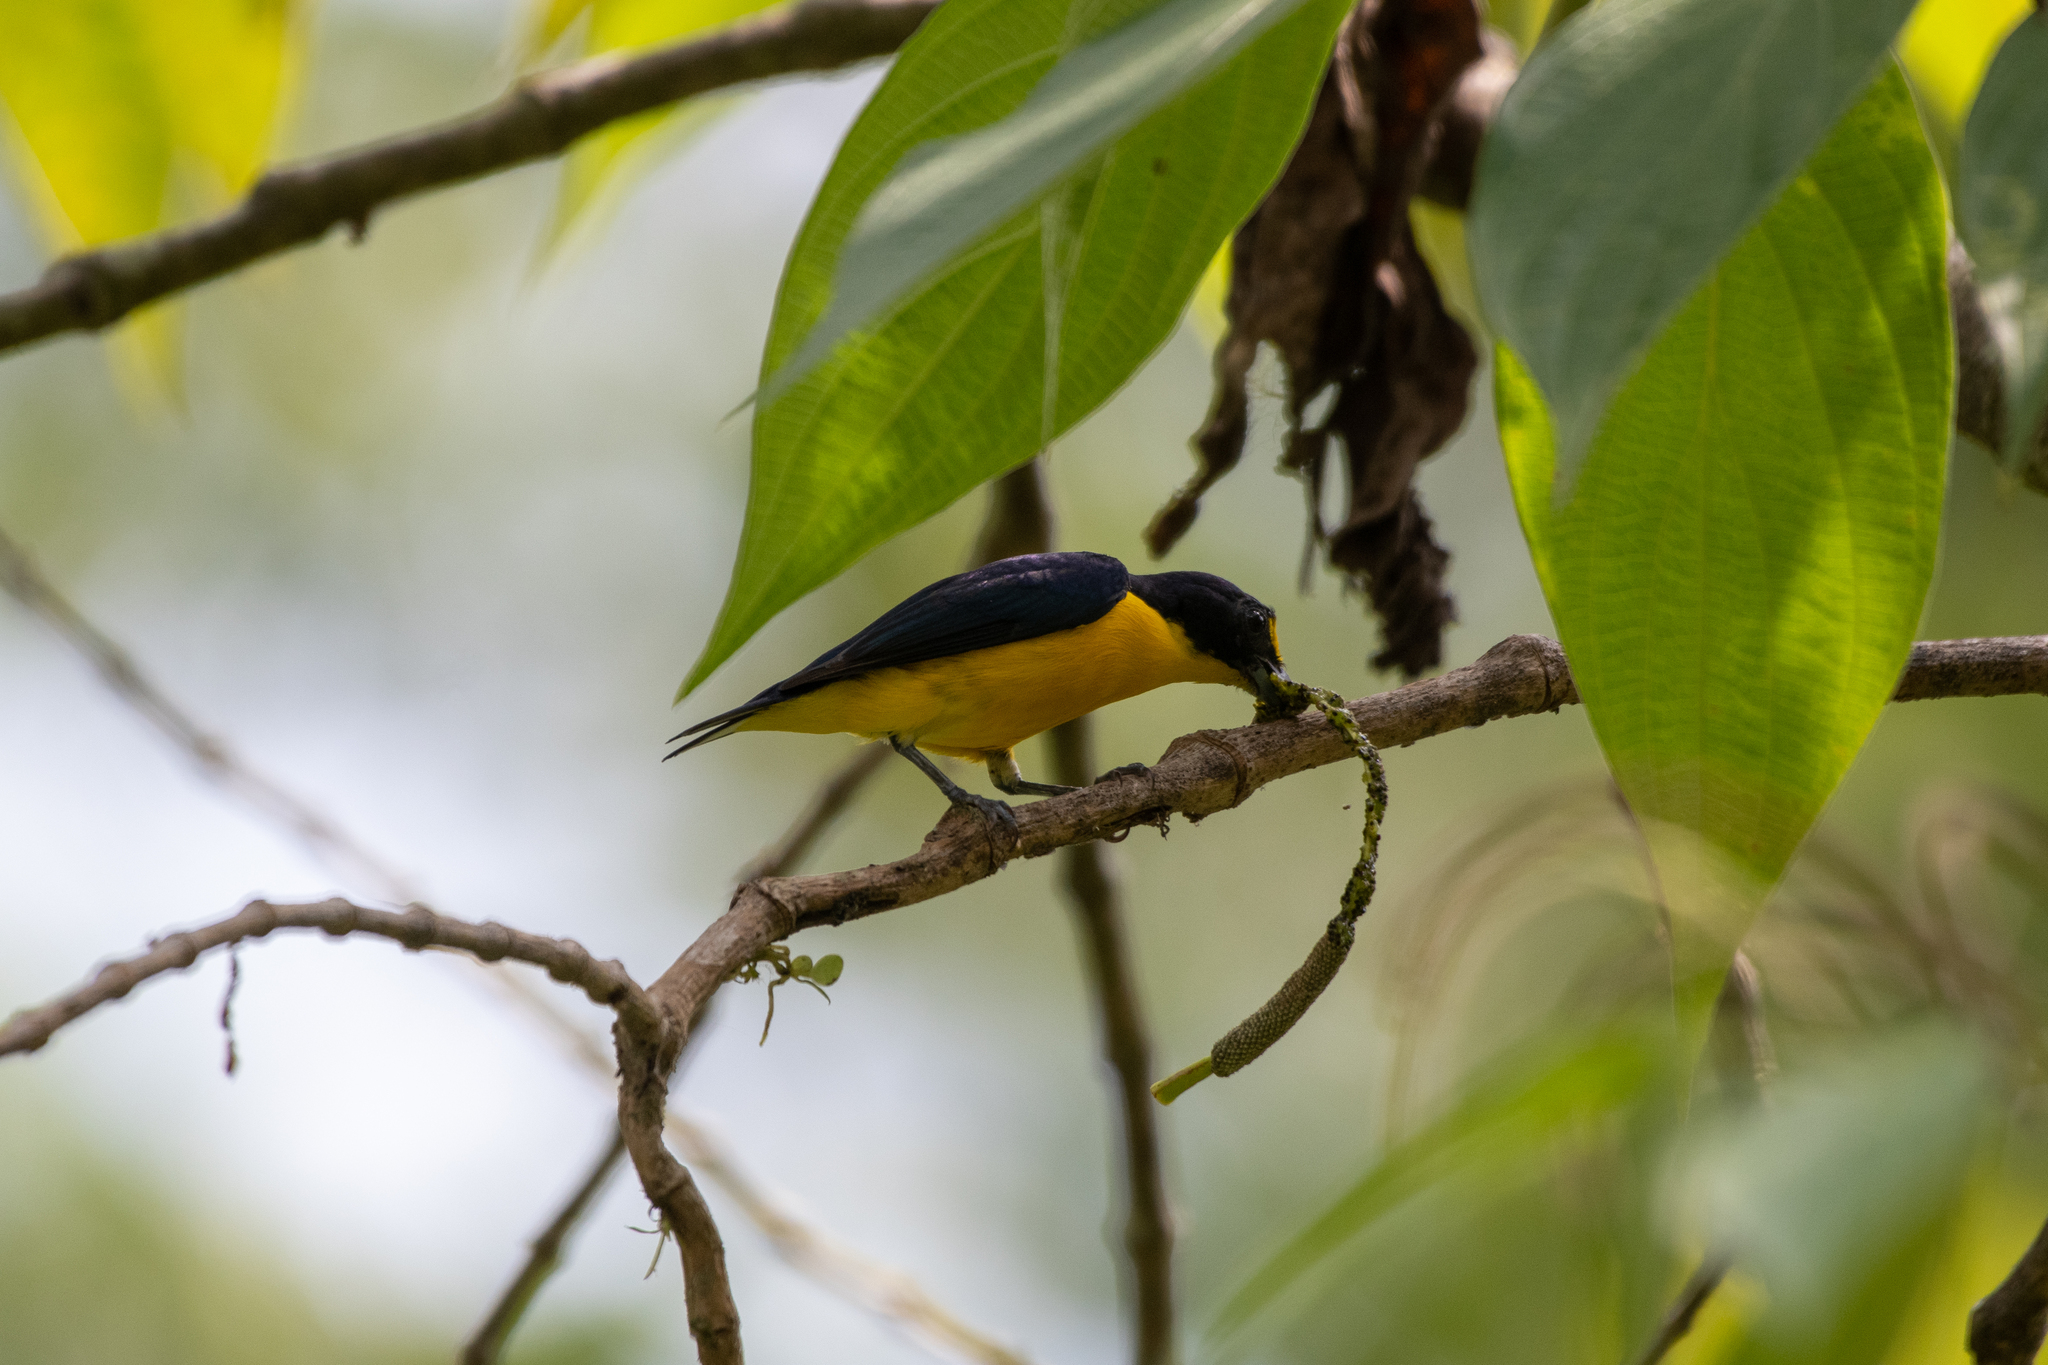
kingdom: Animalia
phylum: Chordata
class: Aves
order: Passeriformes
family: Fringillidae
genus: Euphonia
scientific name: Euphonia hirundinacea
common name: Yellow-throated euphonia
